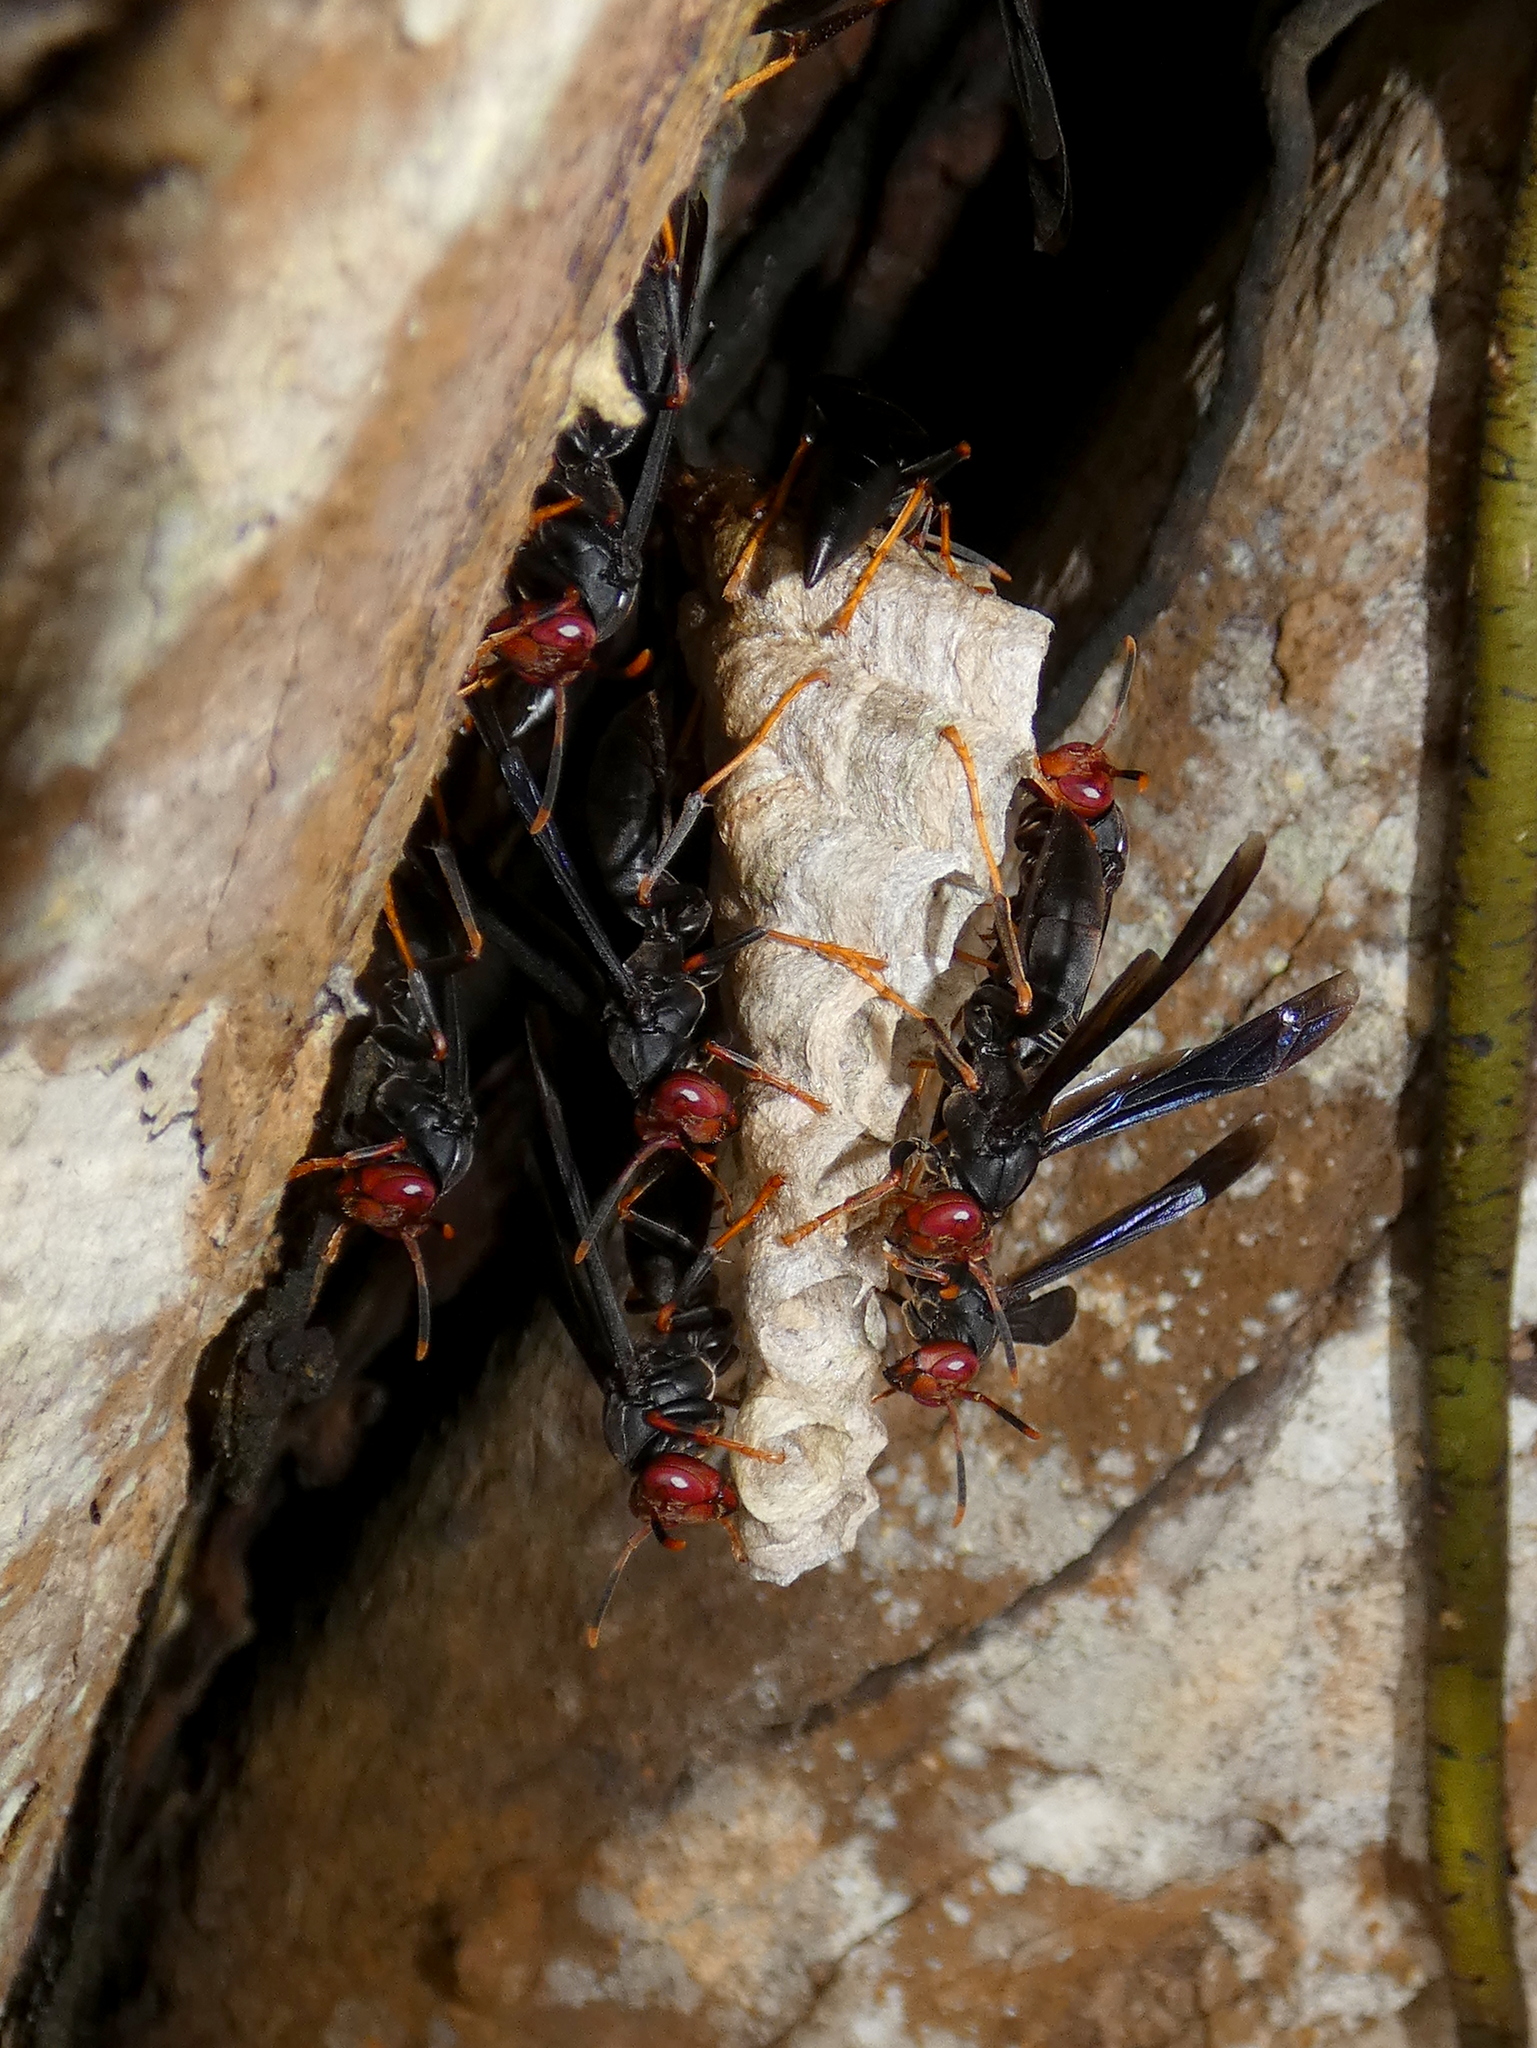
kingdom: Animalia
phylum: Arthropoda
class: Insecta
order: Hymenoptera
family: Eumenidae
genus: Polistes
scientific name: Polistes erythrocephalus
